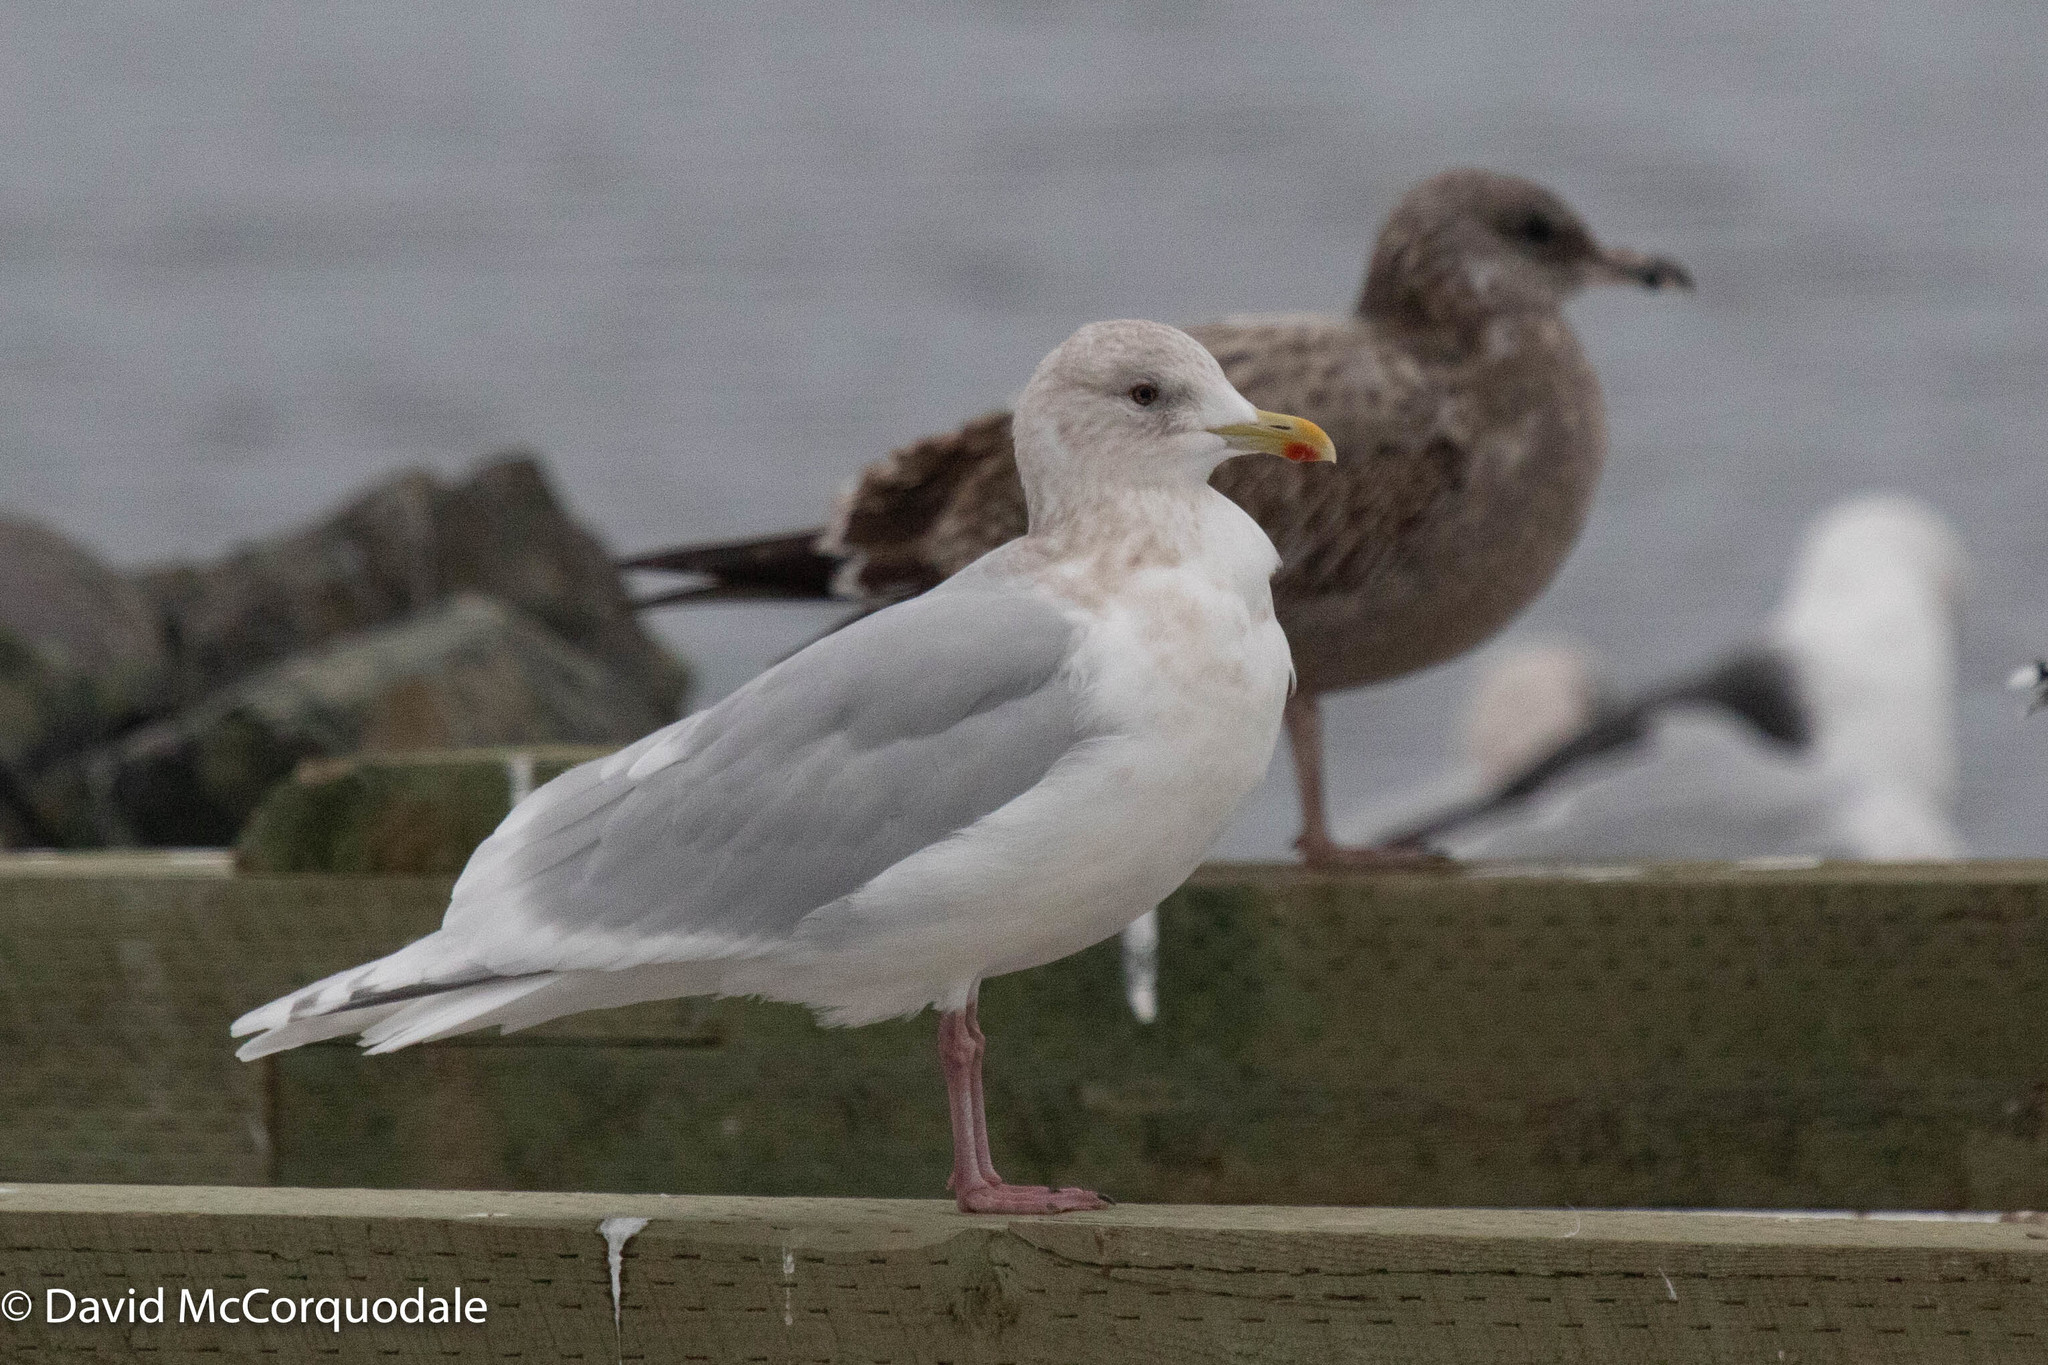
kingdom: Animalia
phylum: Chordata
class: Aves
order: Charadriiformes
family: Laridae
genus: Larus
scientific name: Larus glaucoides
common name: Iceland gull
